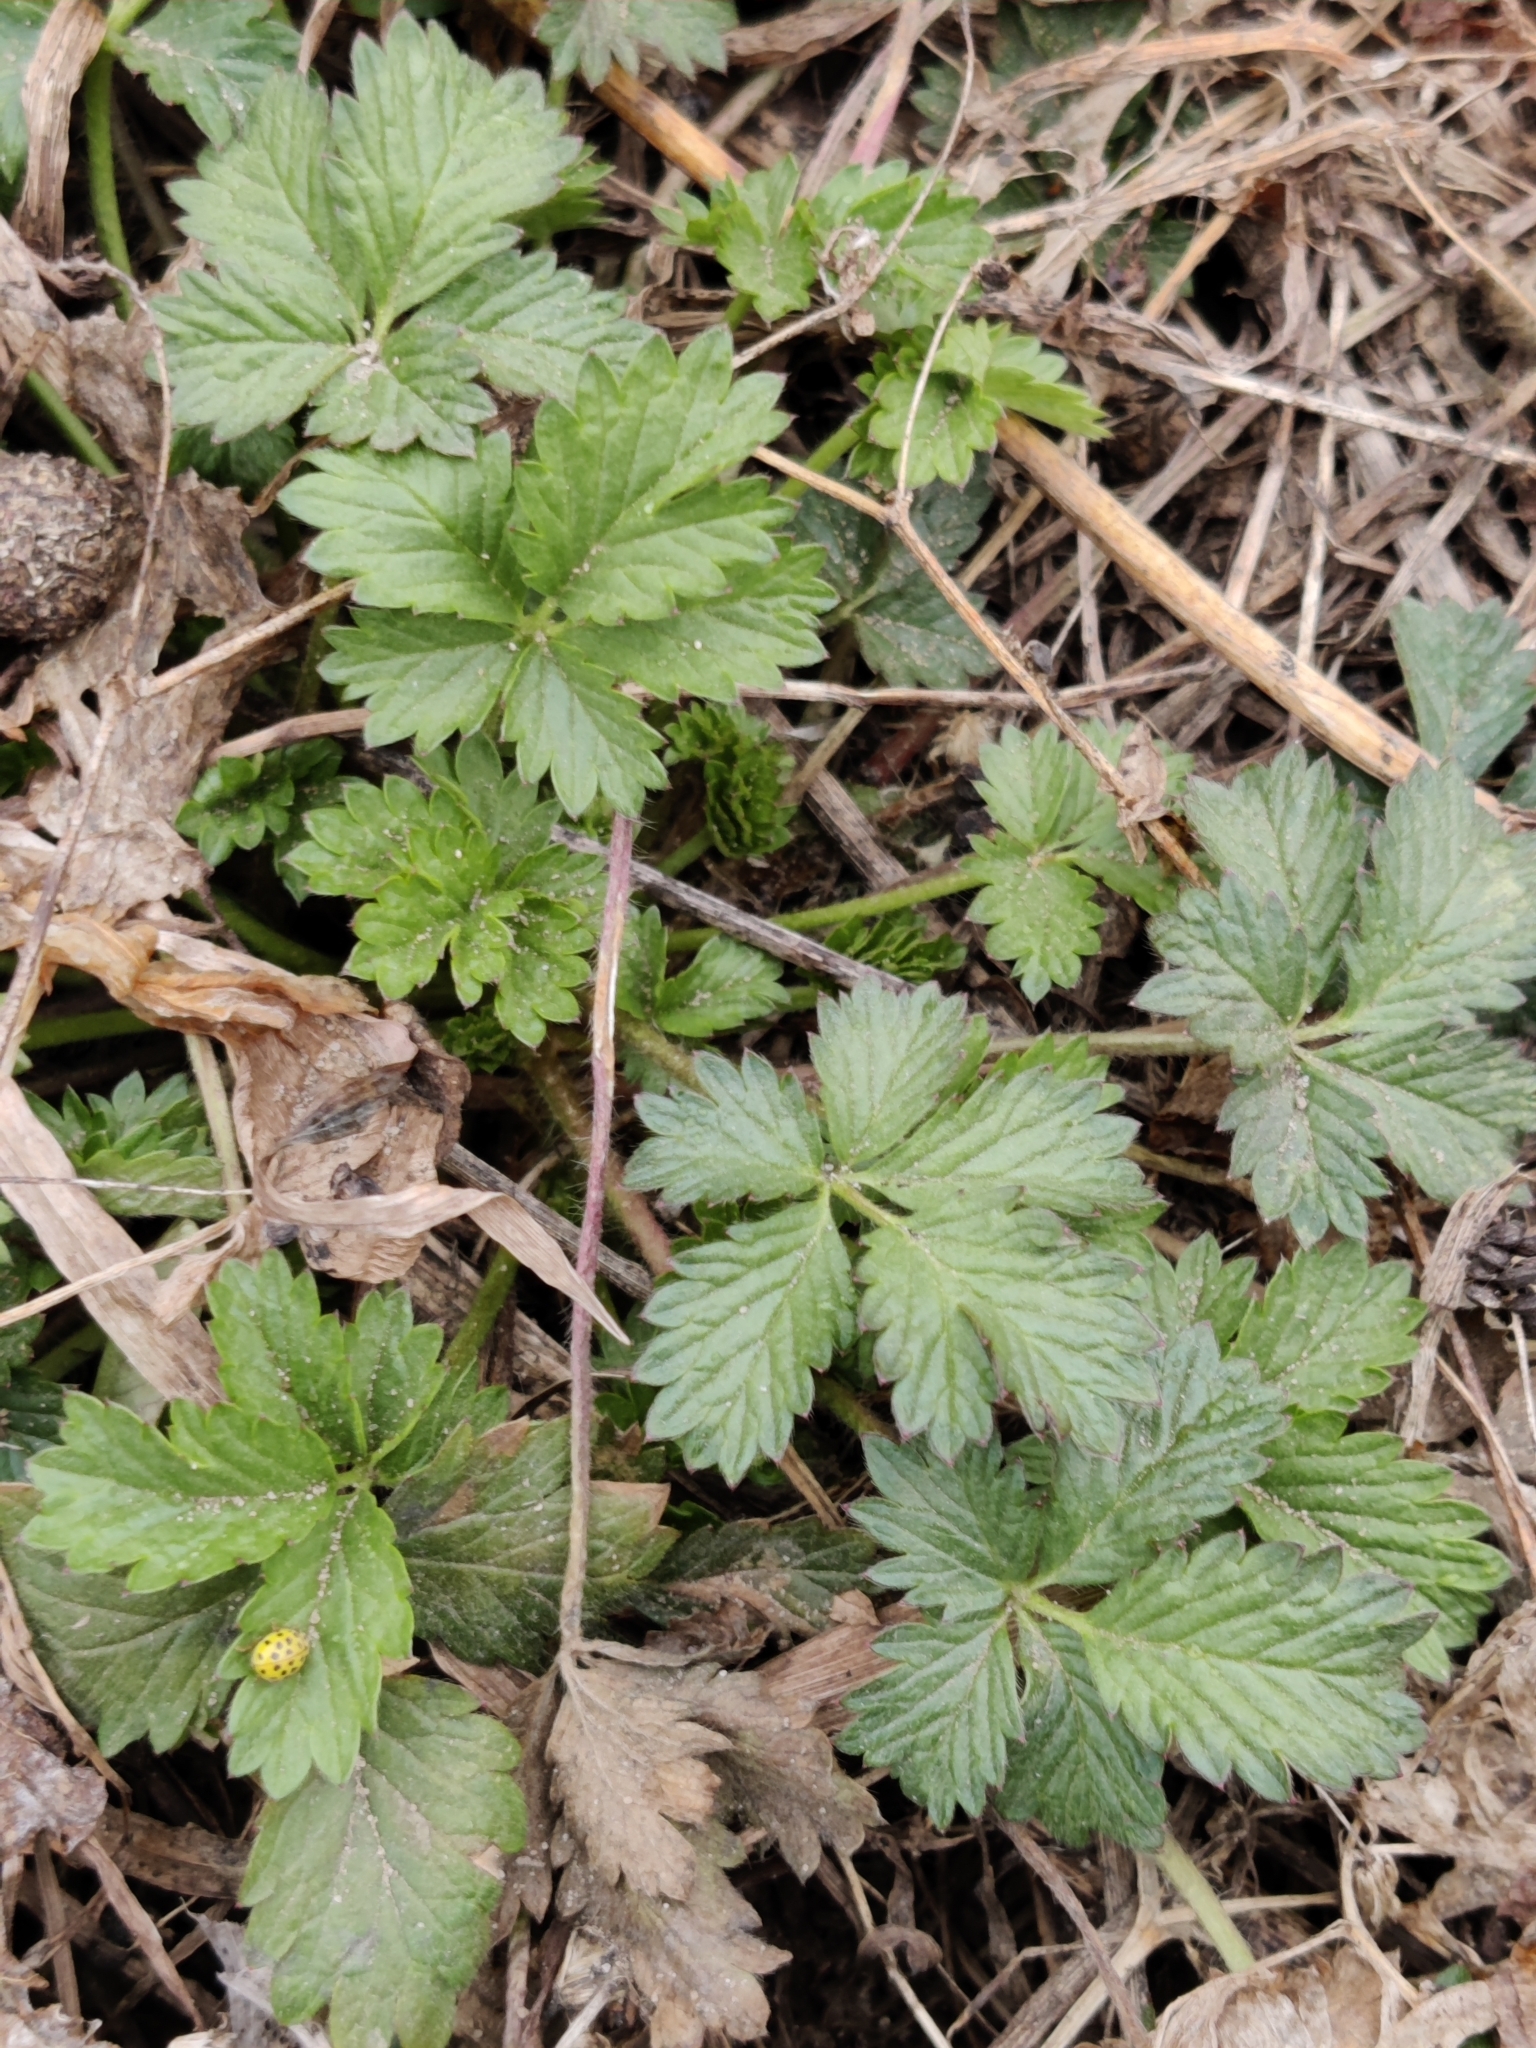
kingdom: Plantae
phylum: Tracheophyta
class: Magnoliopsida
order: Rosales
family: Rosaceae
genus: Potentilla
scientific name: Potentilla intermedia
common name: Downy cinquefoil
